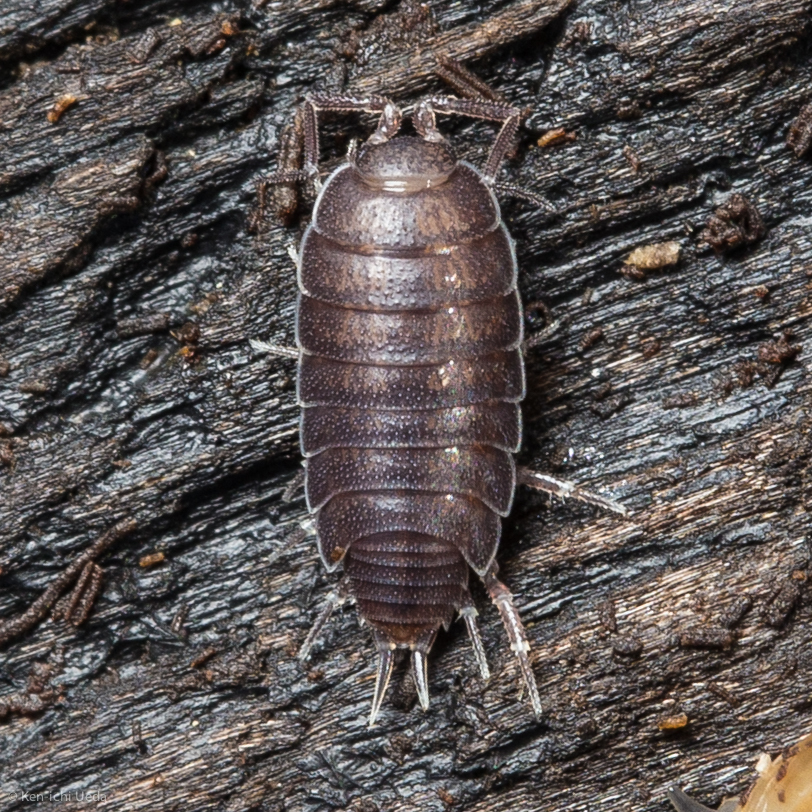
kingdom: Animalia
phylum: Arthropoda
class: Malacostraca
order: Isopoda
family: Halophilosciidae
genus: Littorophiloscia
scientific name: Littorophiloscia richardsonae
